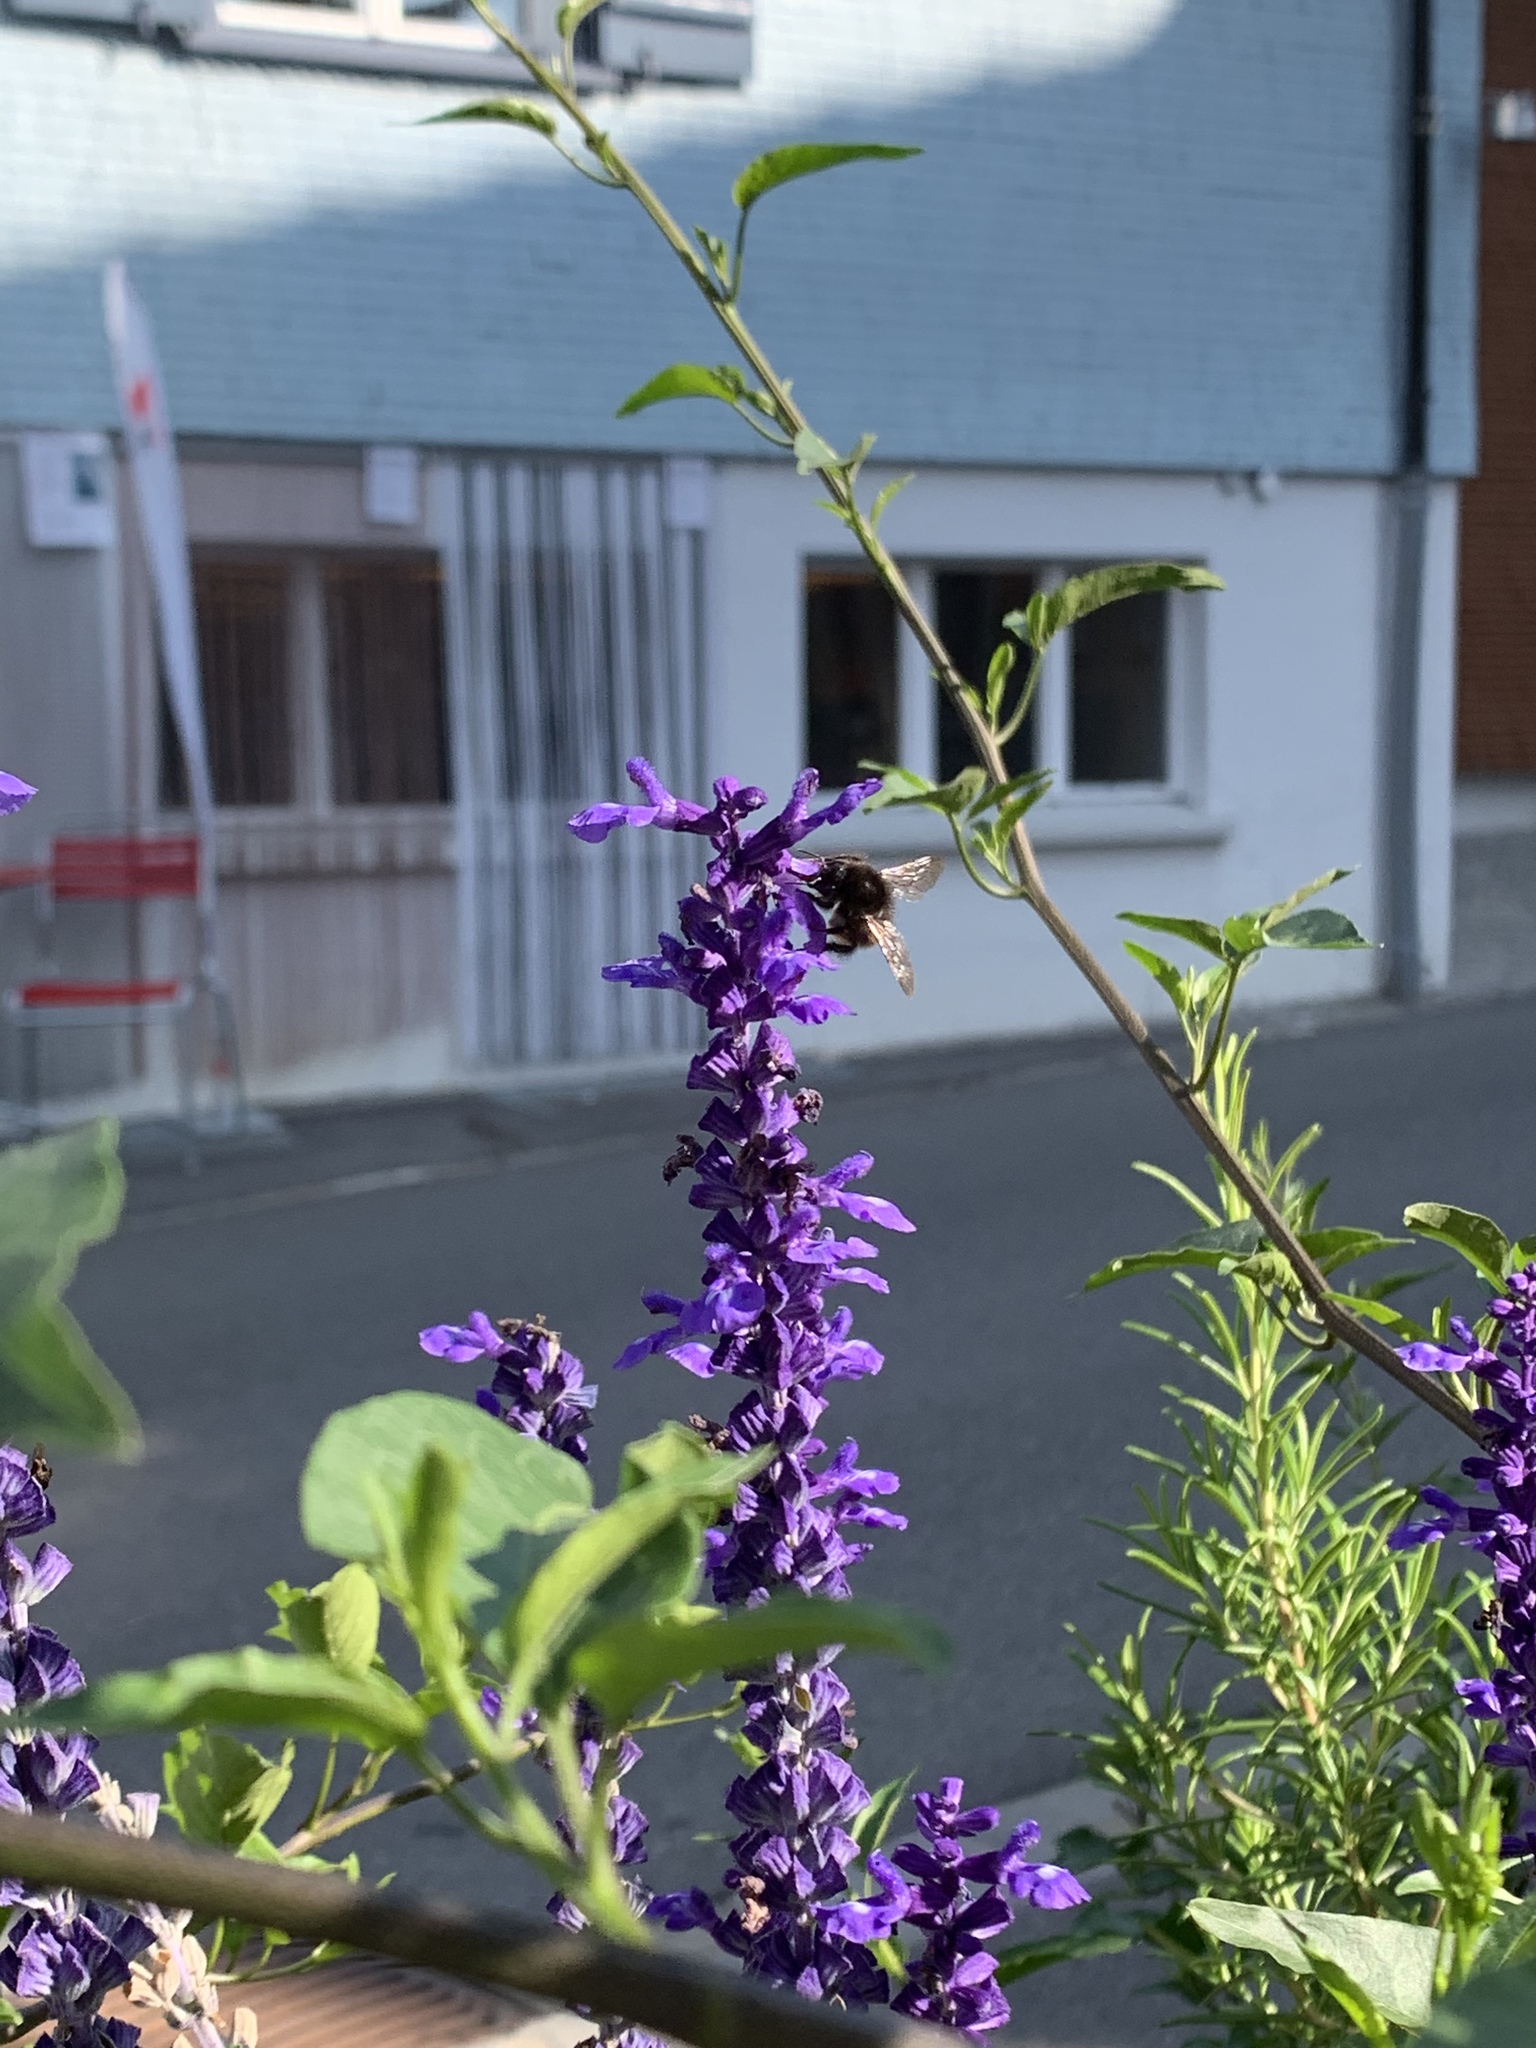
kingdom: Animalia
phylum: Arthropoda
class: Insecta
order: Hymenoptera
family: Apidae
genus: Bombus
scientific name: Bombus lapidarius
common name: Large red-tailed humble-bee
